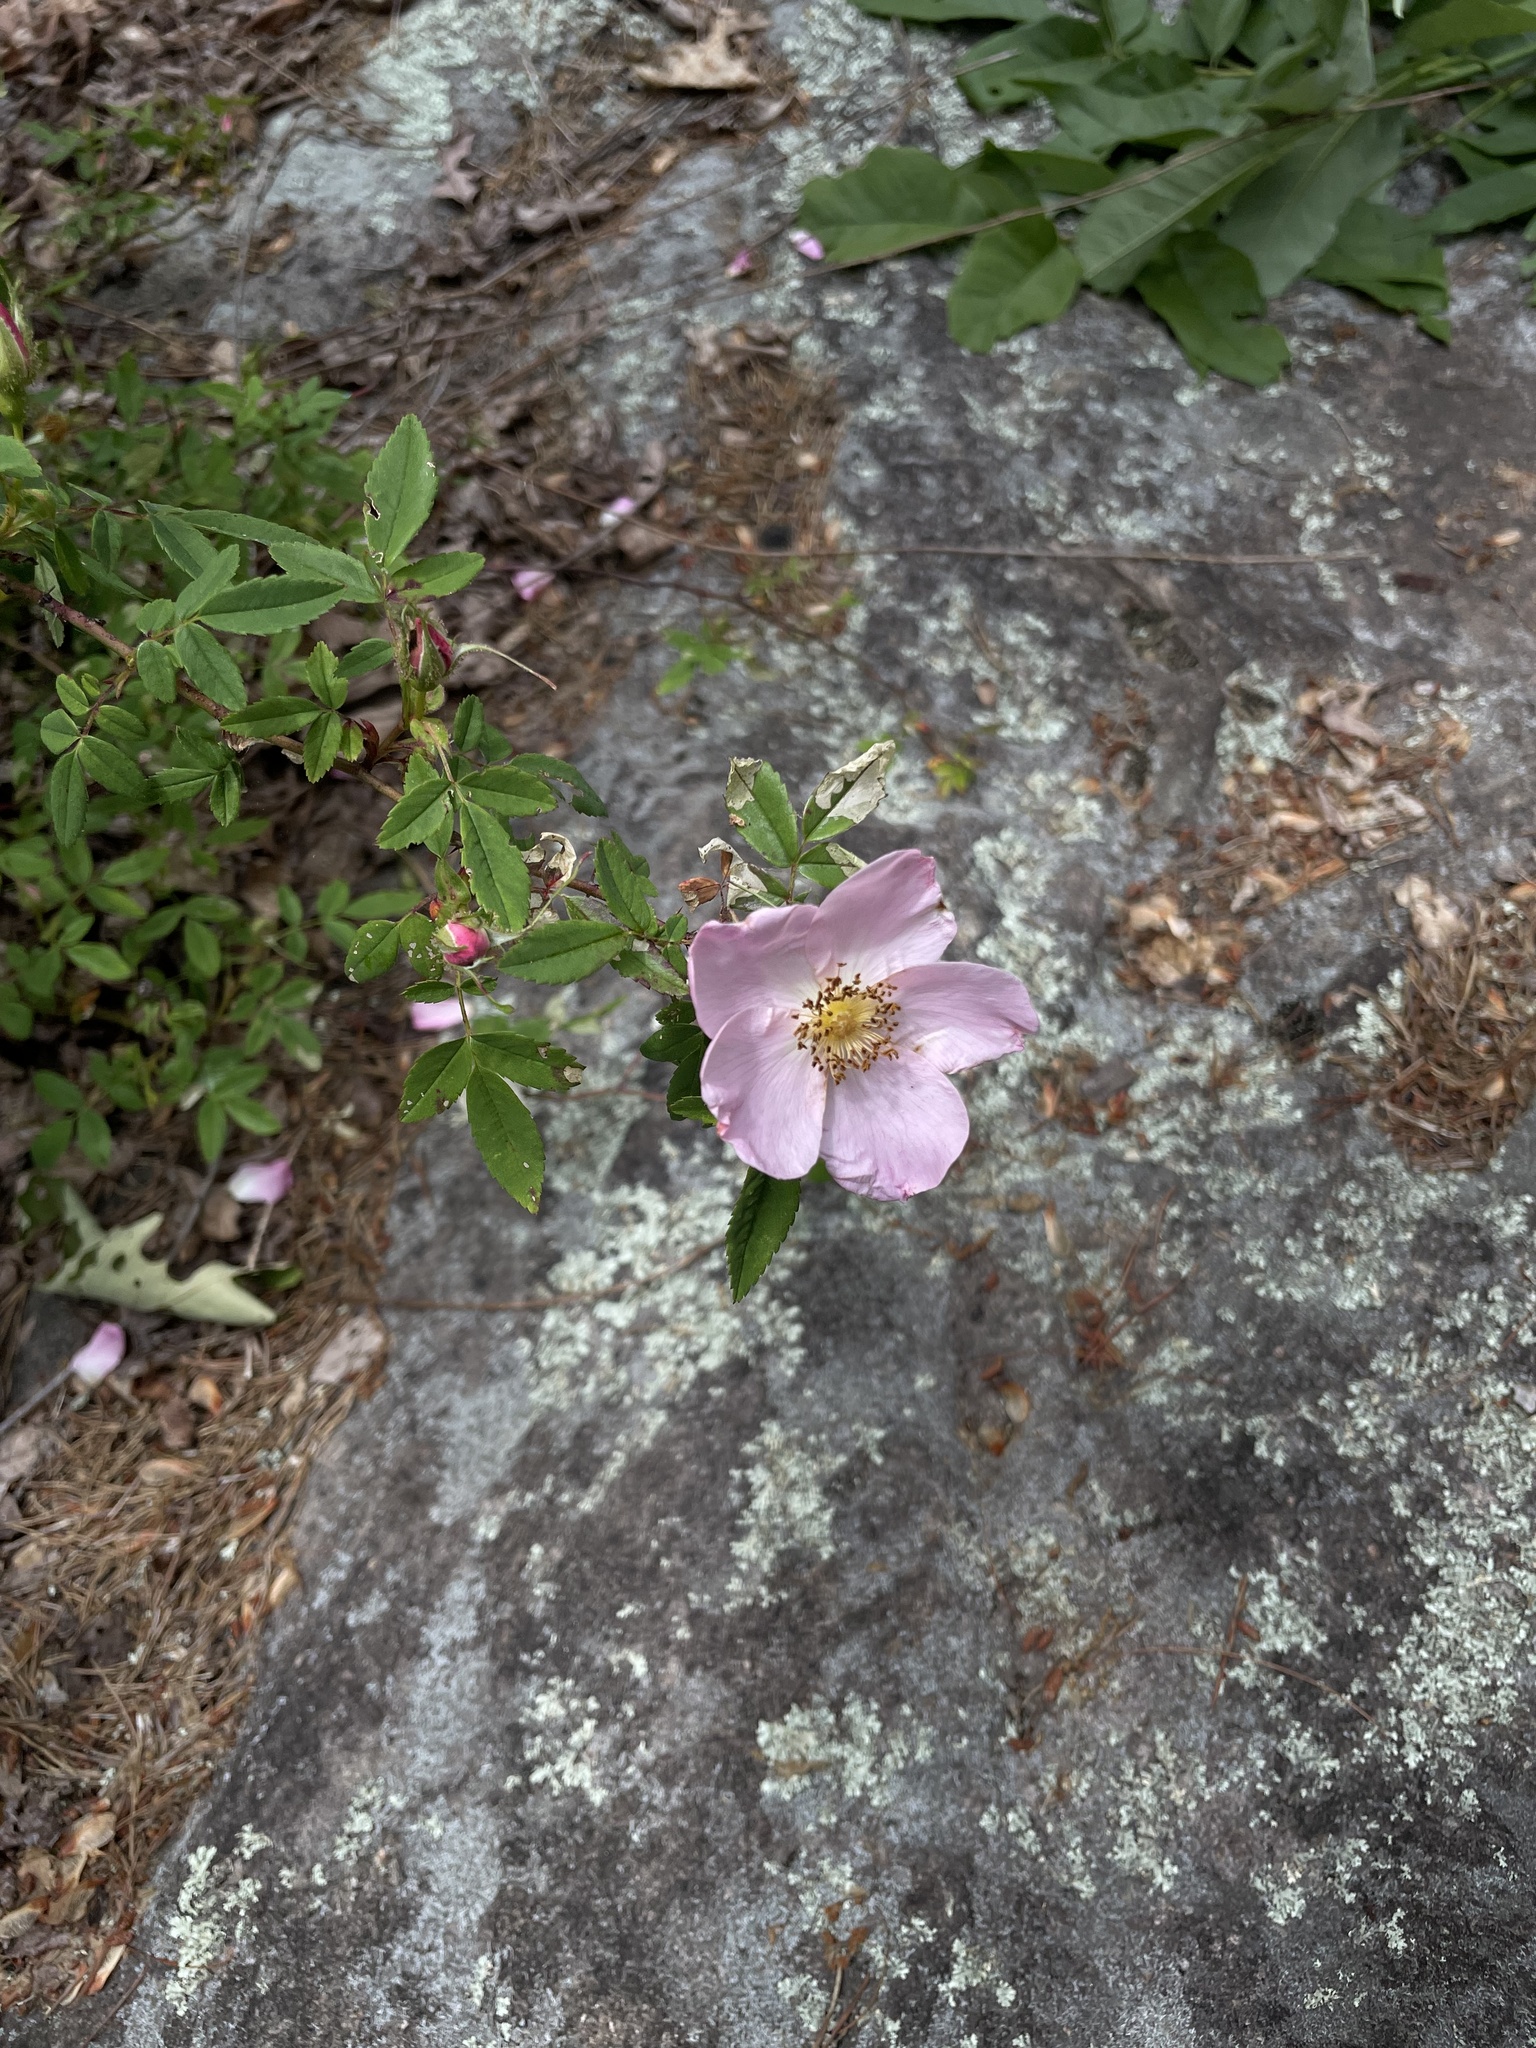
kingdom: Plantae
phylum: Tracheophyta
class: Magnoliopsida
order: Rosales
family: Rosaceae
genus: Rosa
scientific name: Rosa carolina
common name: Pasture rose
